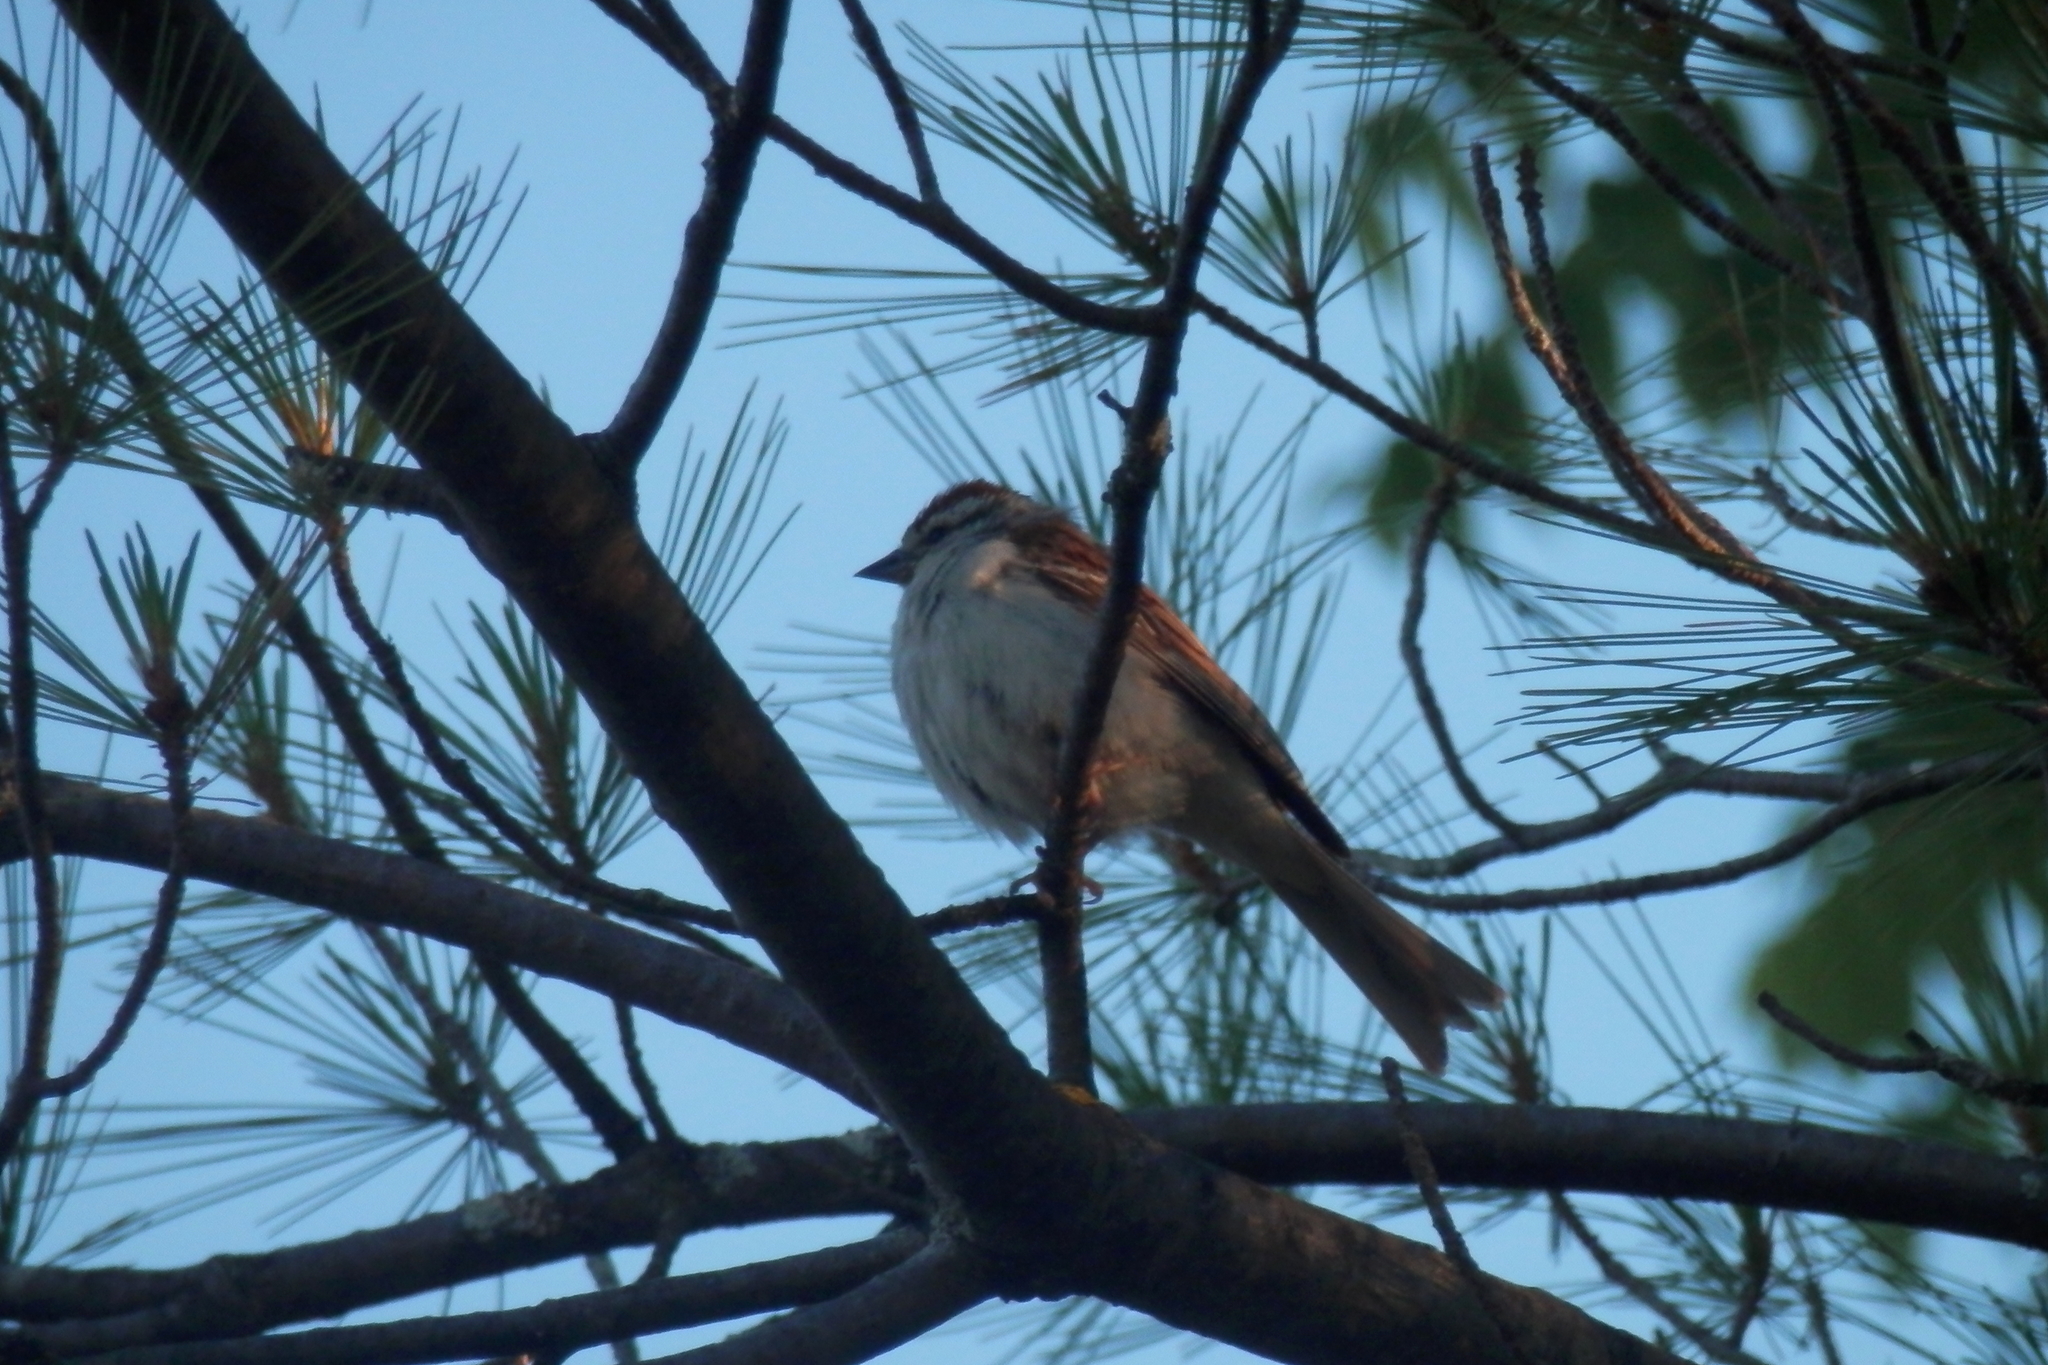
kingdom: Animalia
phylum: Chordata
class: Aves
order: Passeriformes
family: Passerellidae
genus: Spizella
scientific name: Spizella passerina
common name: Chipping sparrow
